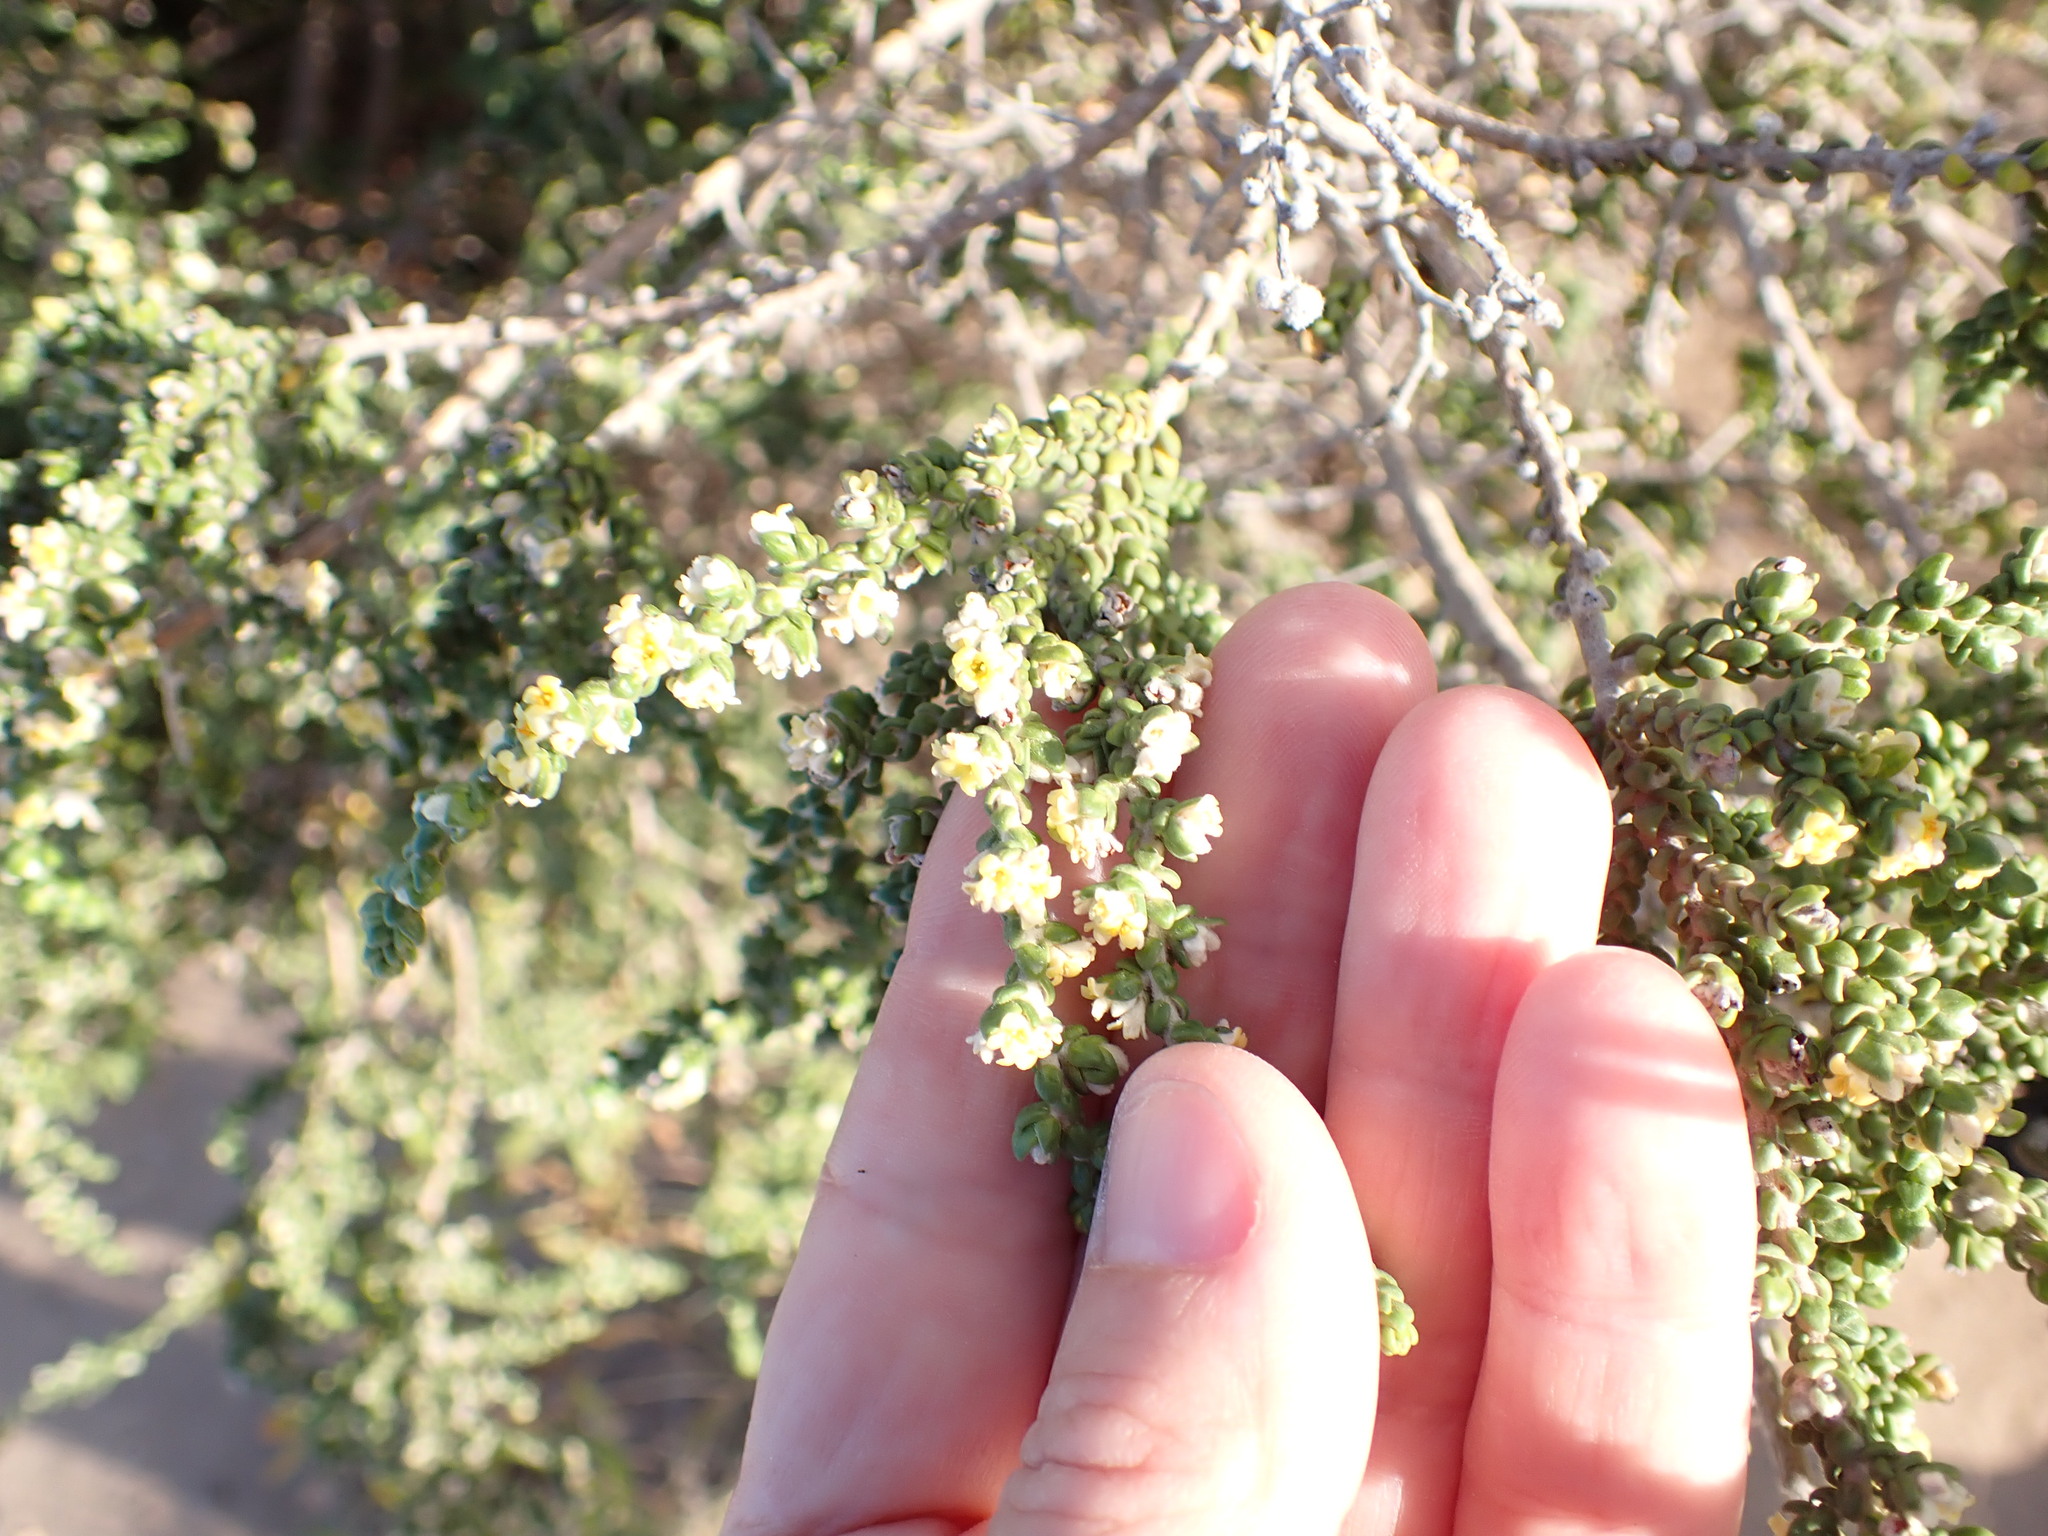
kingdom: Plantae
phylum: Tracheophyta
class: Magnoliopsida
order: Malvales
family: Thymelaeaceae
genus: Thymelaea
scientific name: Thymelaea hirsuta
